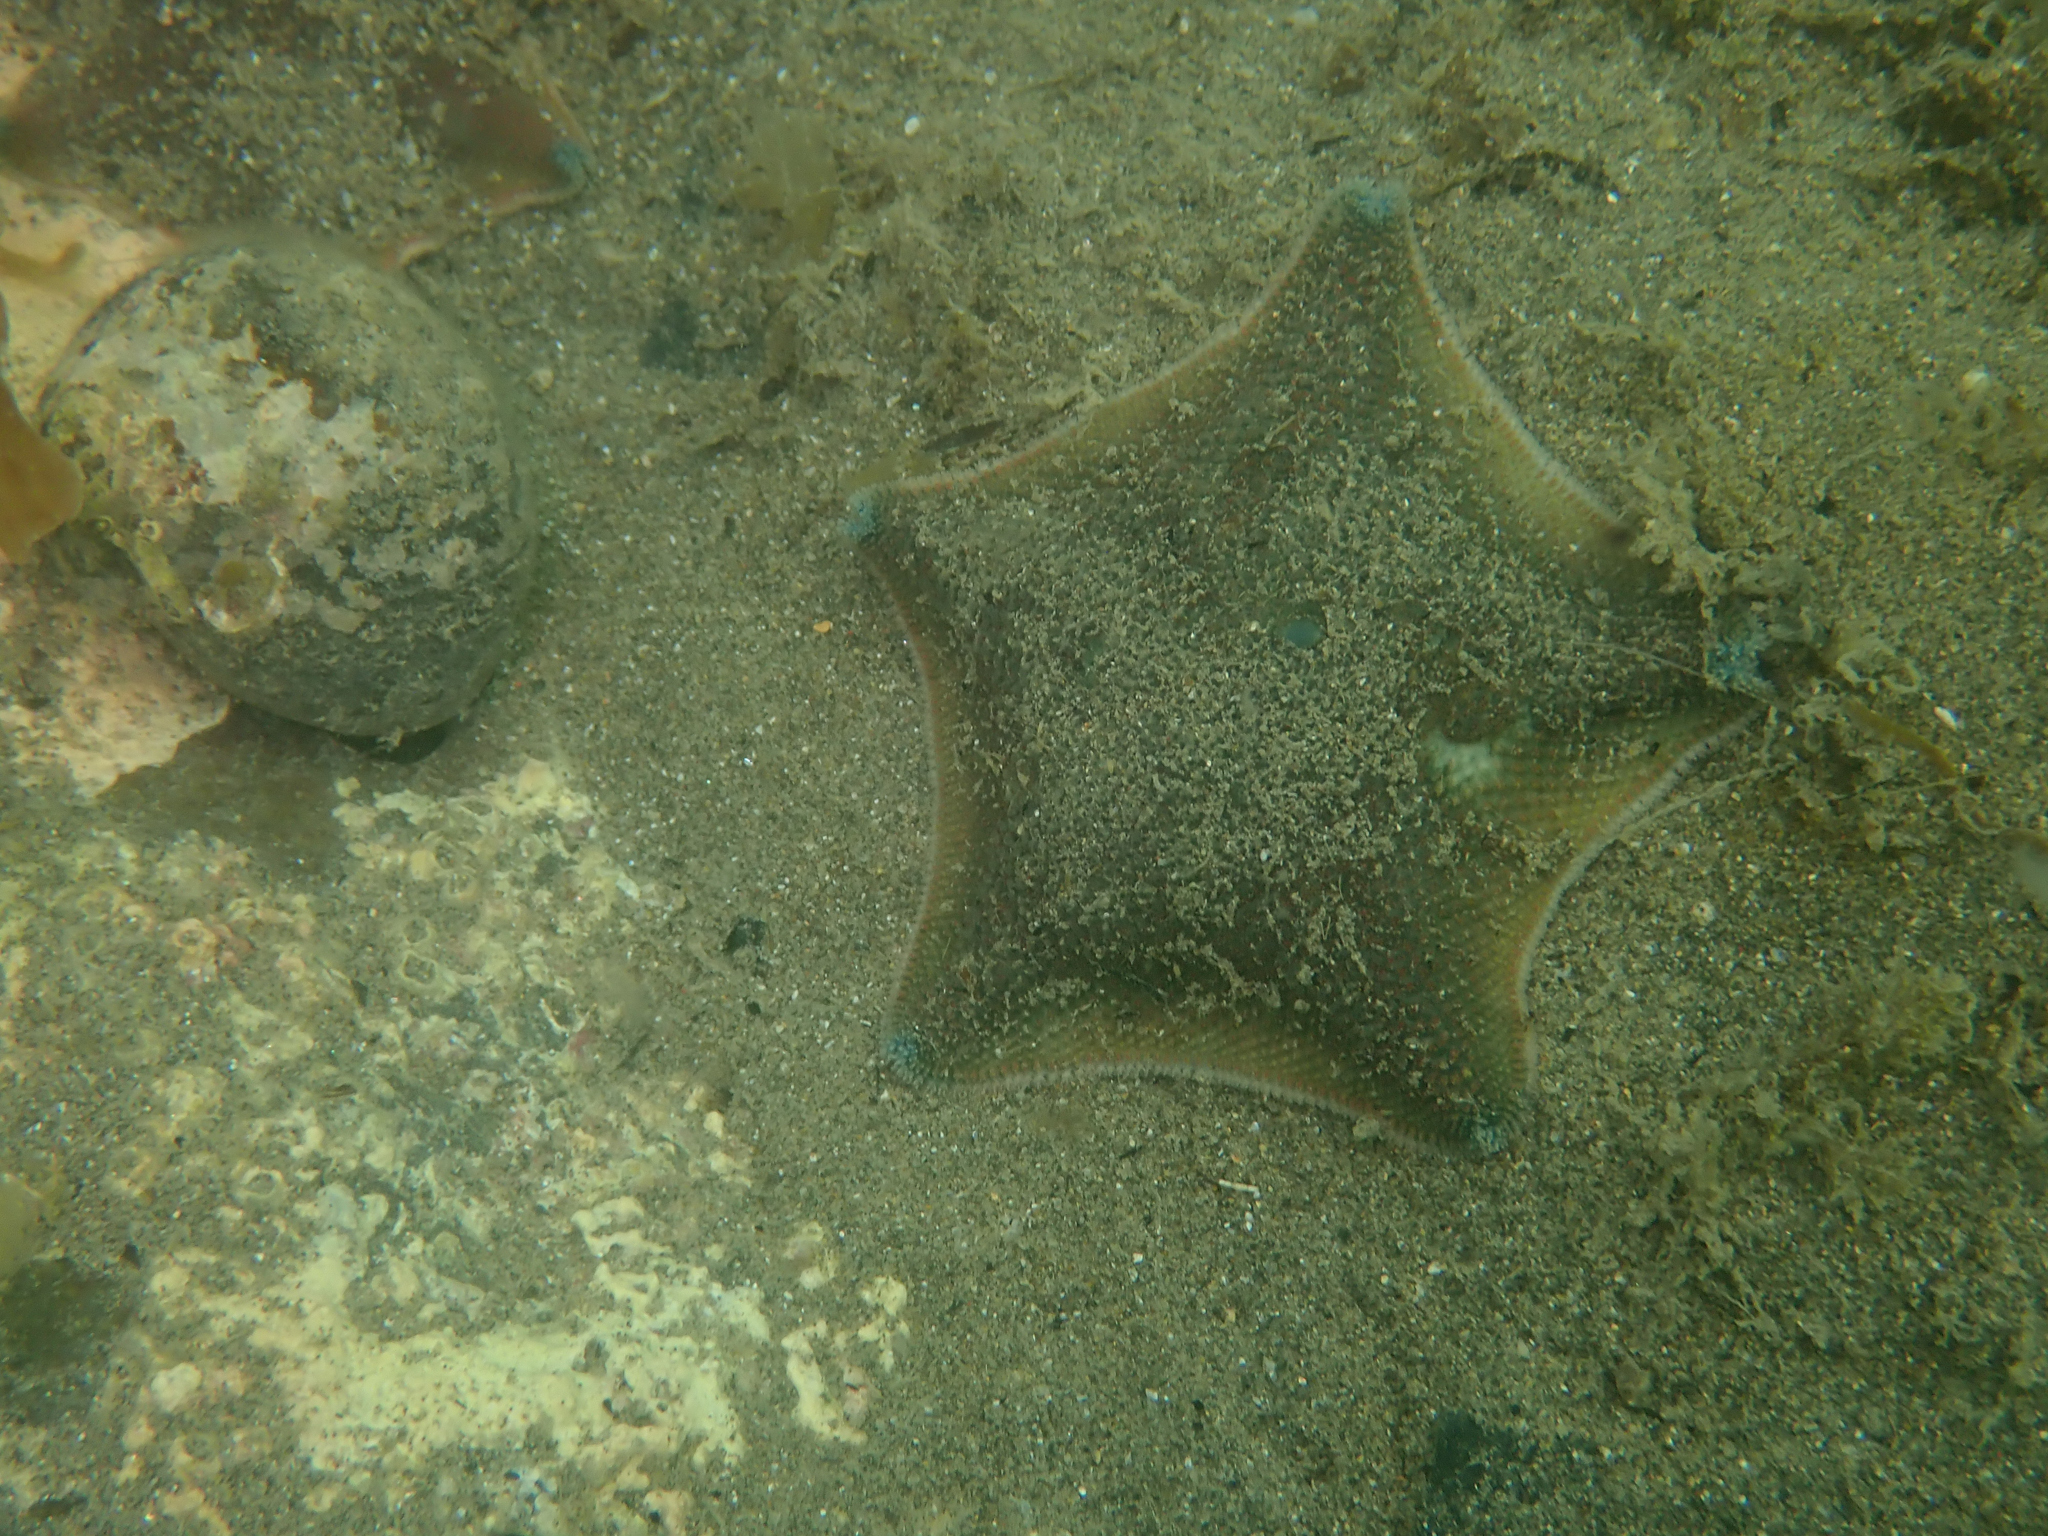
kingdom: Animalia
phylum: Echinodermata
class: Asteroidea
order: Valvatida
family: Asterinidae
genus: Patiriella
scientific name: Patiriella regularis
